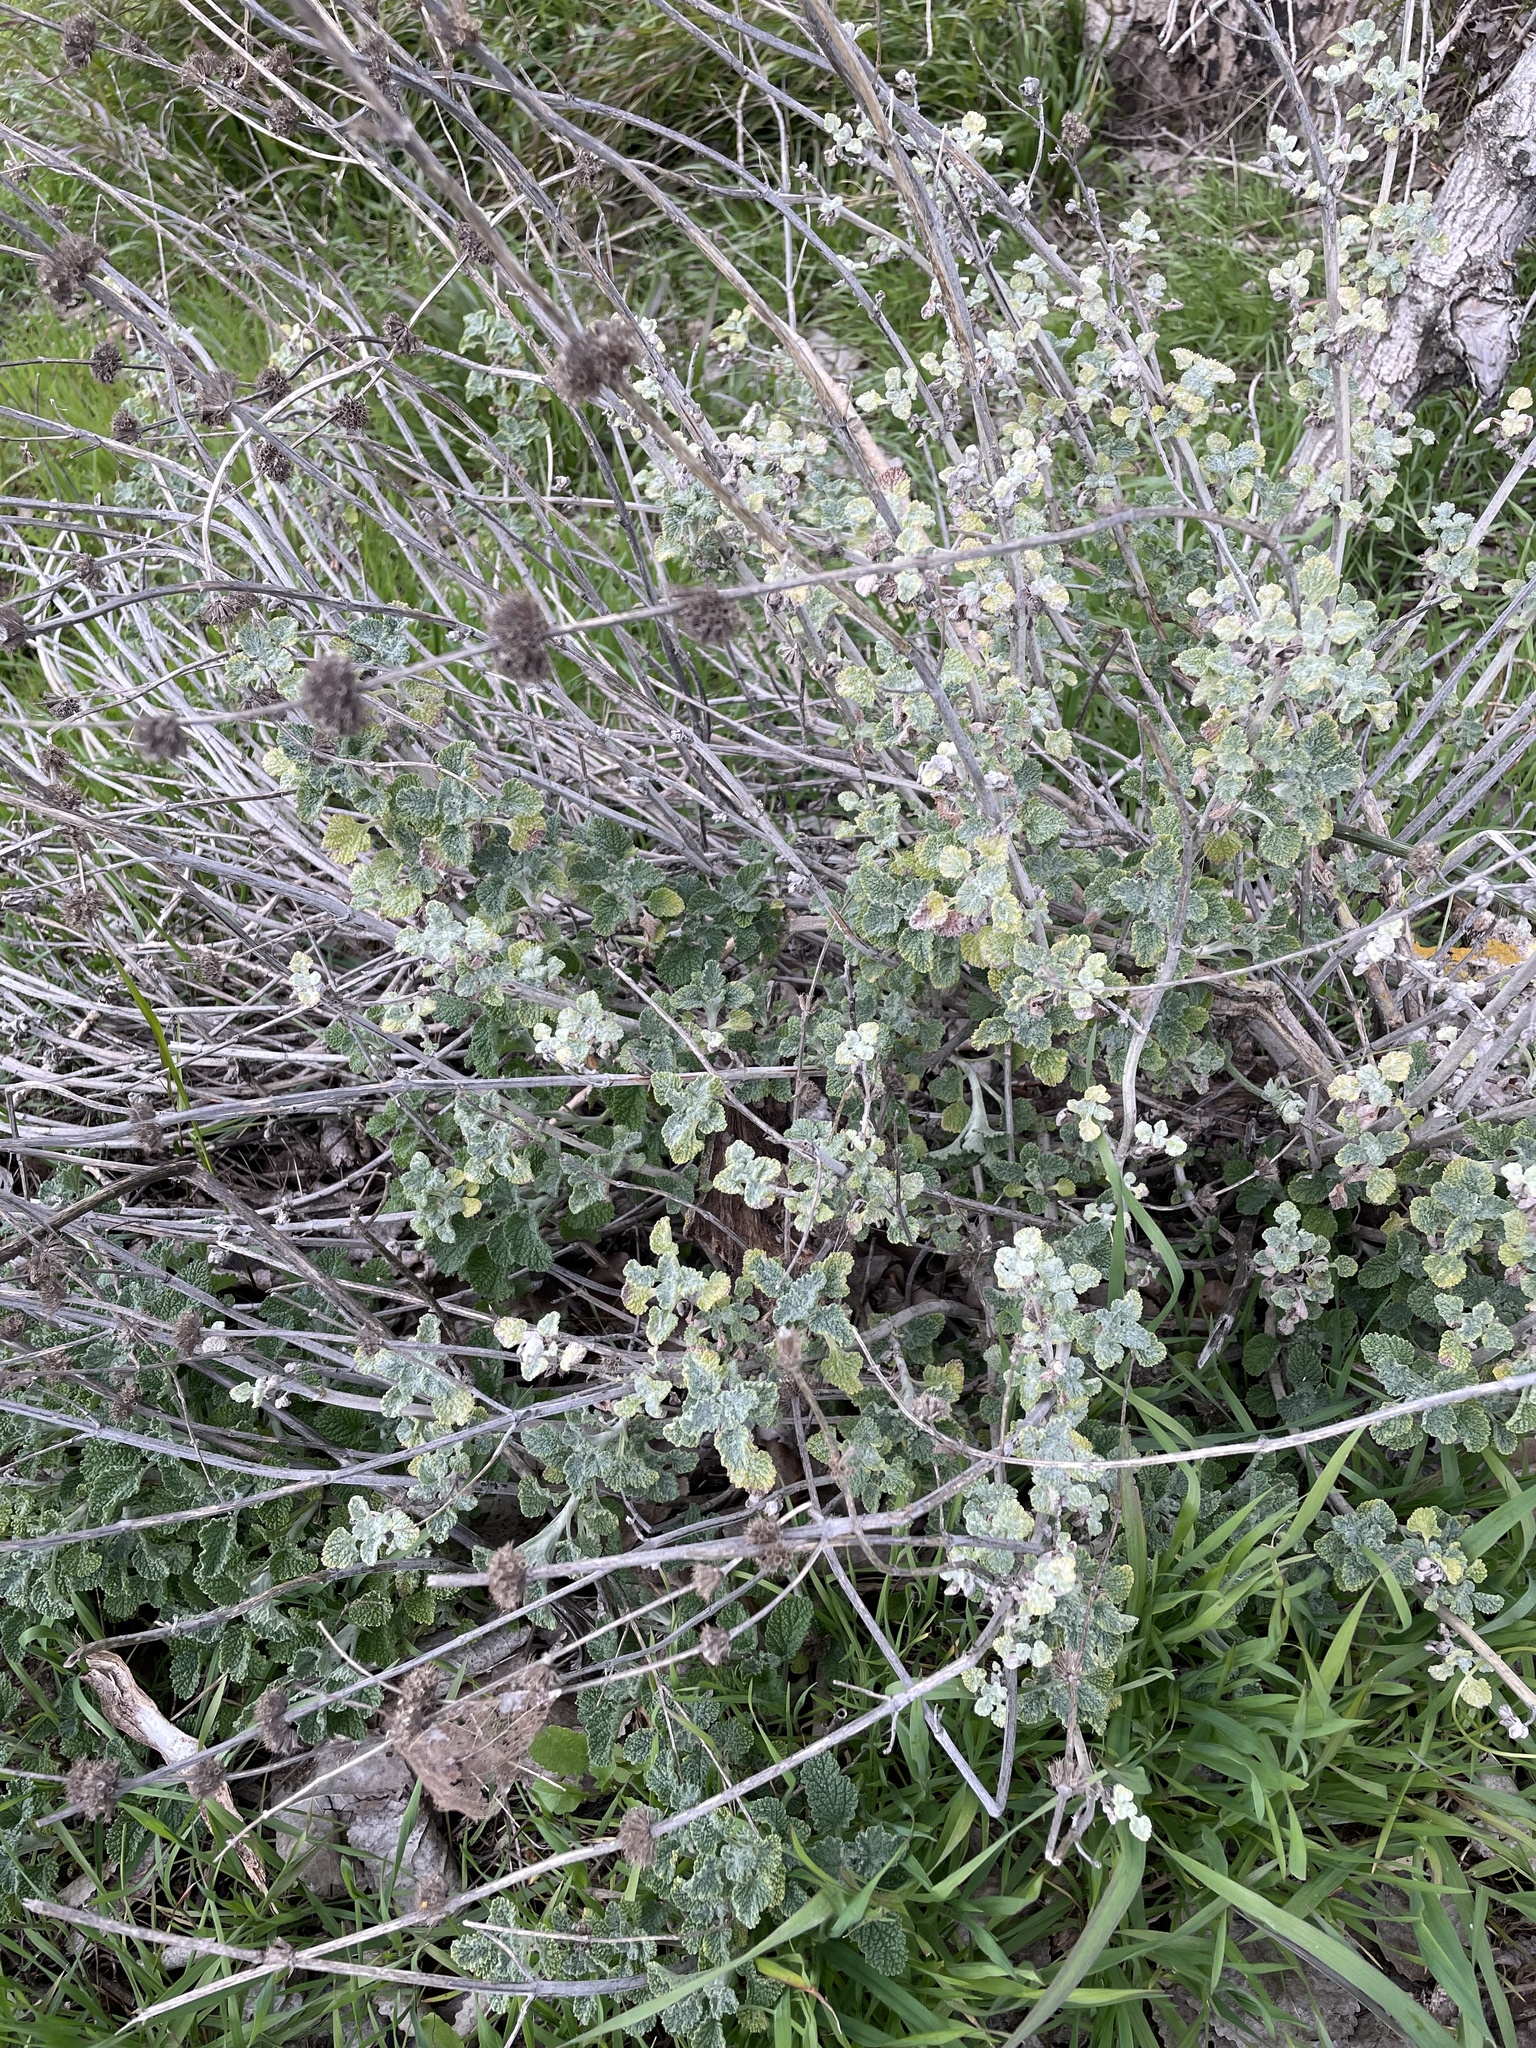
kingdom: Plantae
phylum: Tracheophyta
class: Magnoliopsida
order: Lamiales
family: Lamiaceae
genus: Marrubium
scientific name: Marrubium vulgare
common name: Horehound
